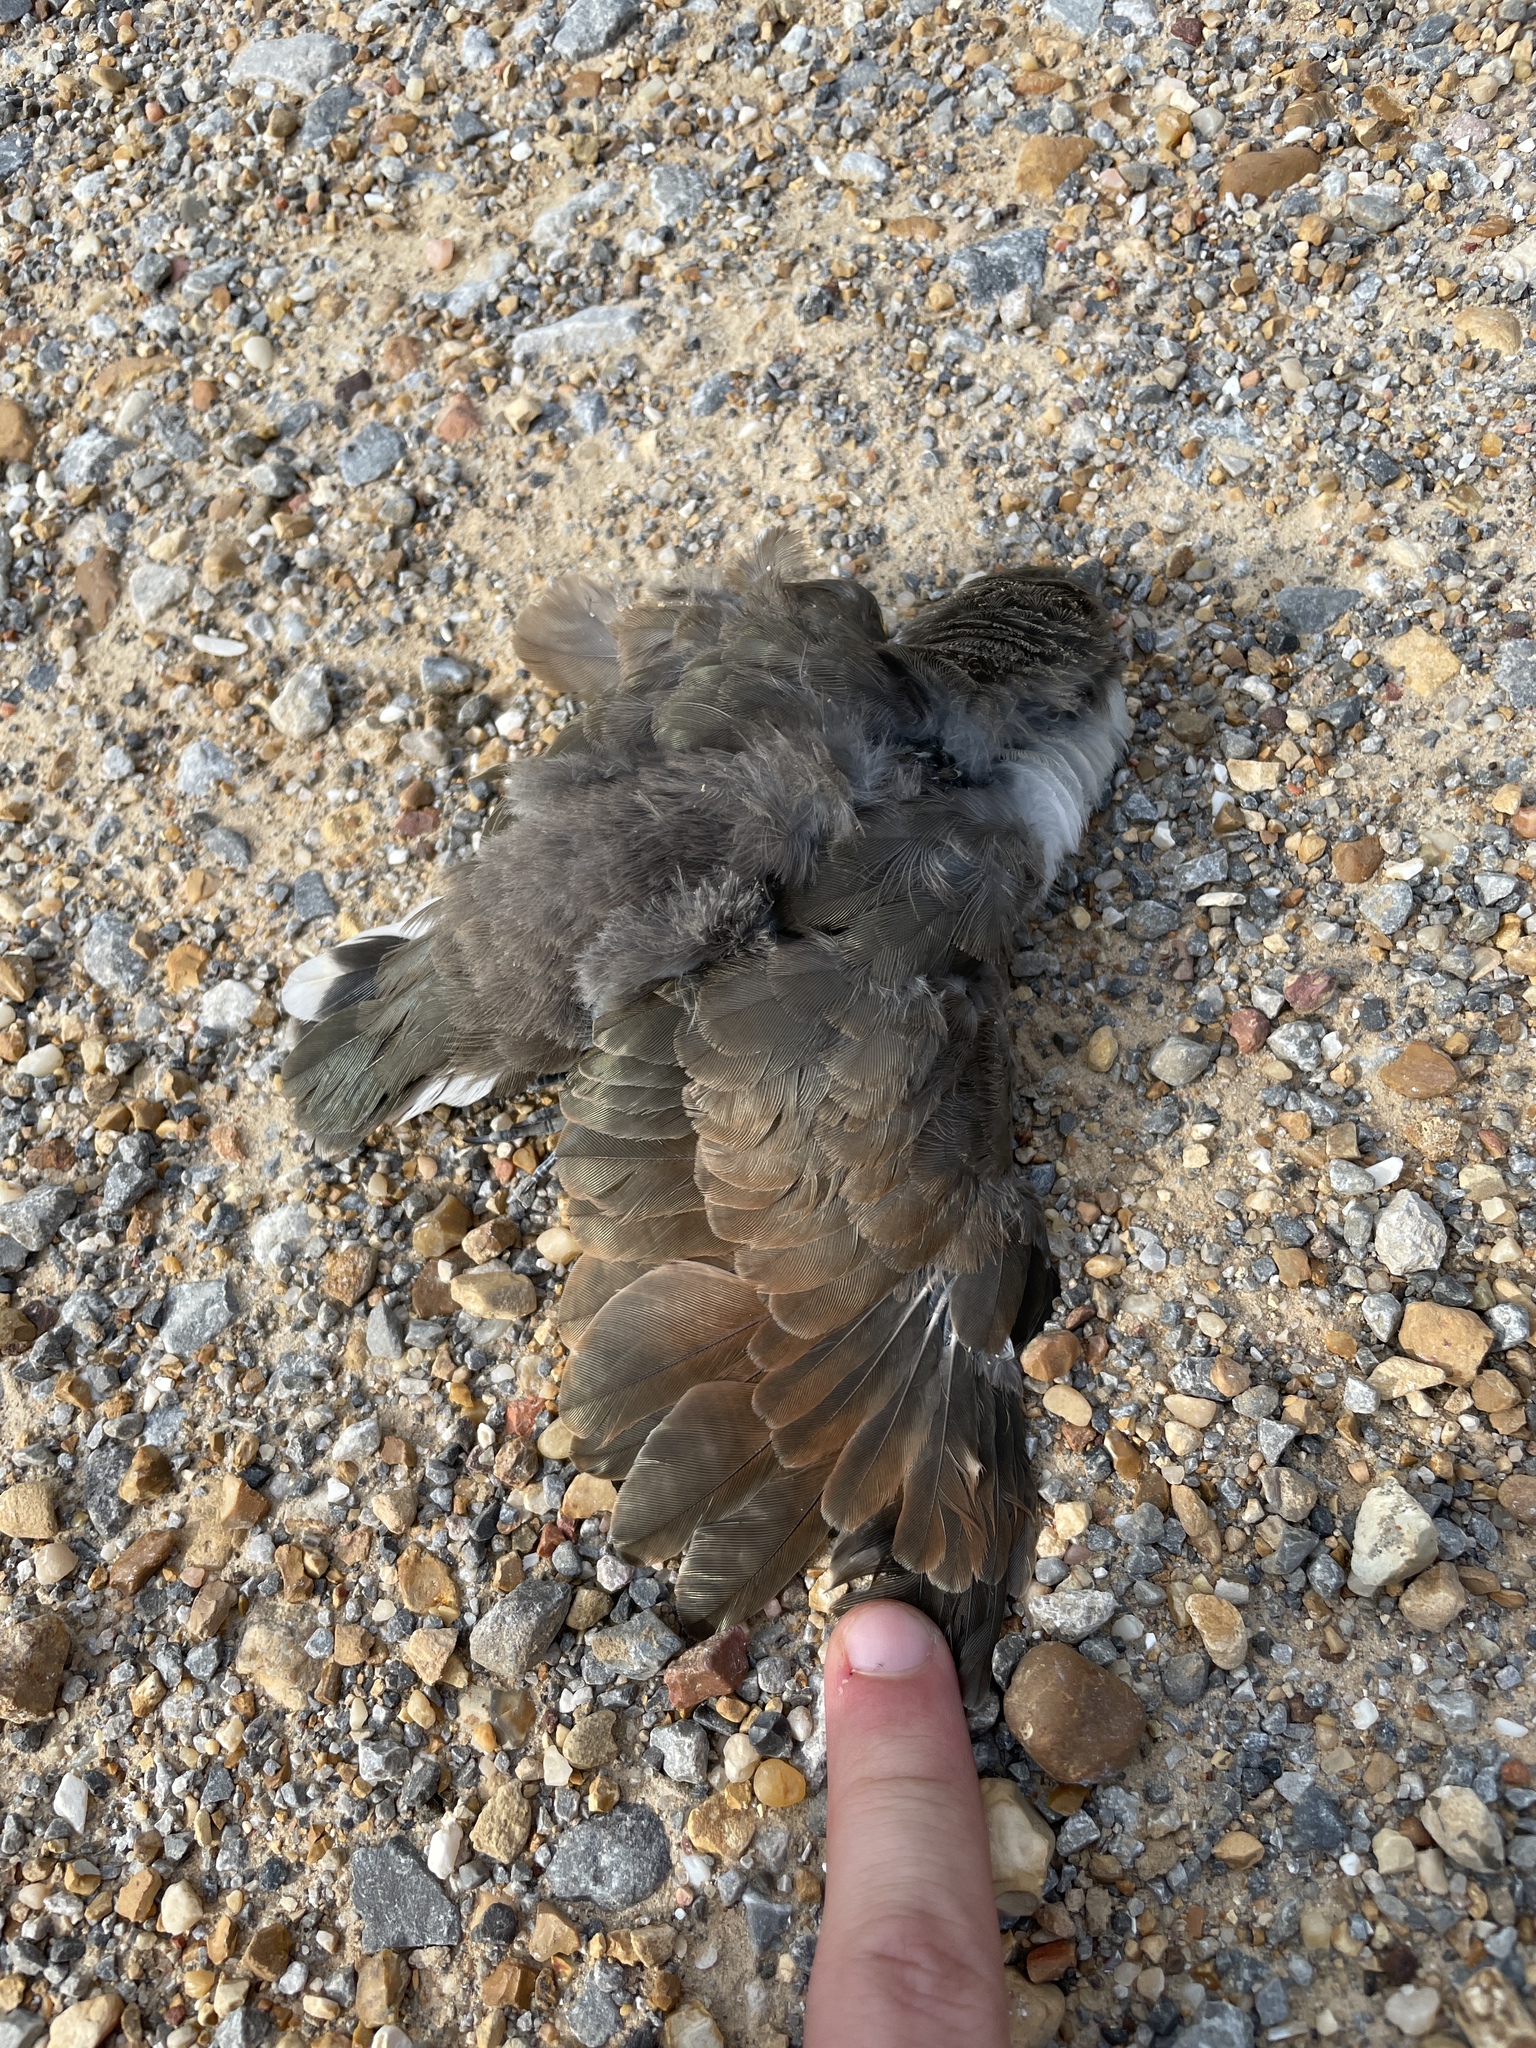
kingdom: Animalia
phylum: Chordata
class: Aves
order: Cuculiformes
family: Cuculidae
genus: Coccyzus
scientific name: Coccyzus americanus
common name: Yellow-billed cuckoo
